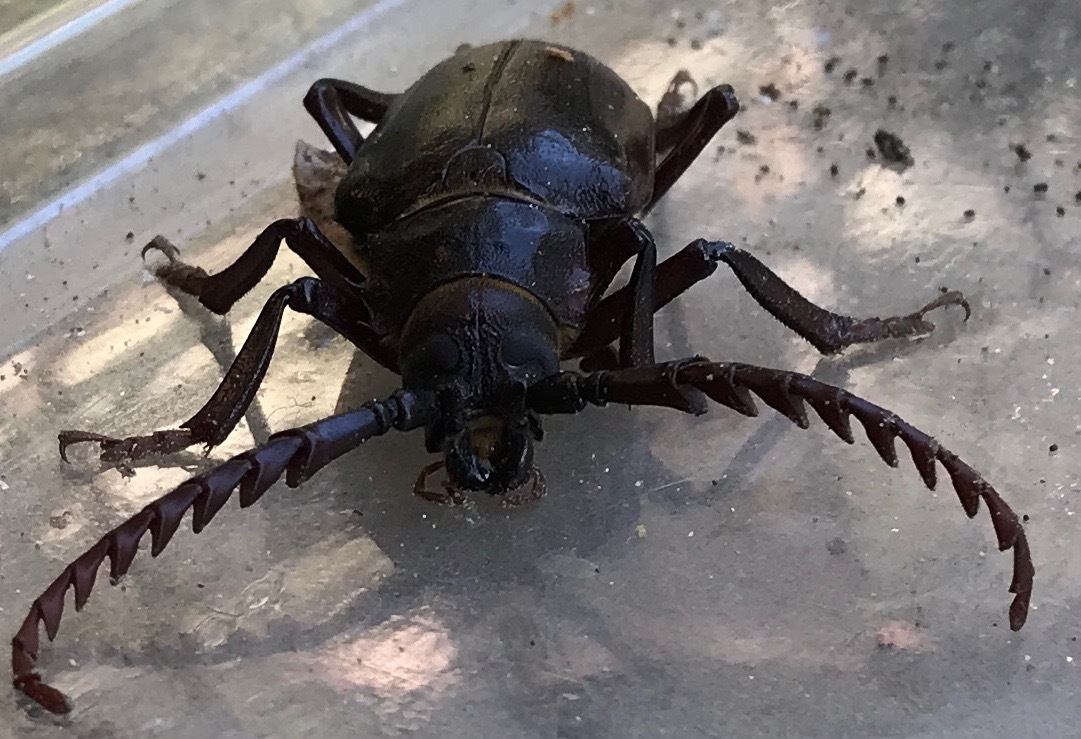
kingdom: Animalia
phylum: Arthropoda
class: Insecta
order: Coleoptera
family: Cerambycidae
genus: Prionus
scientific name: Prionus californicus
